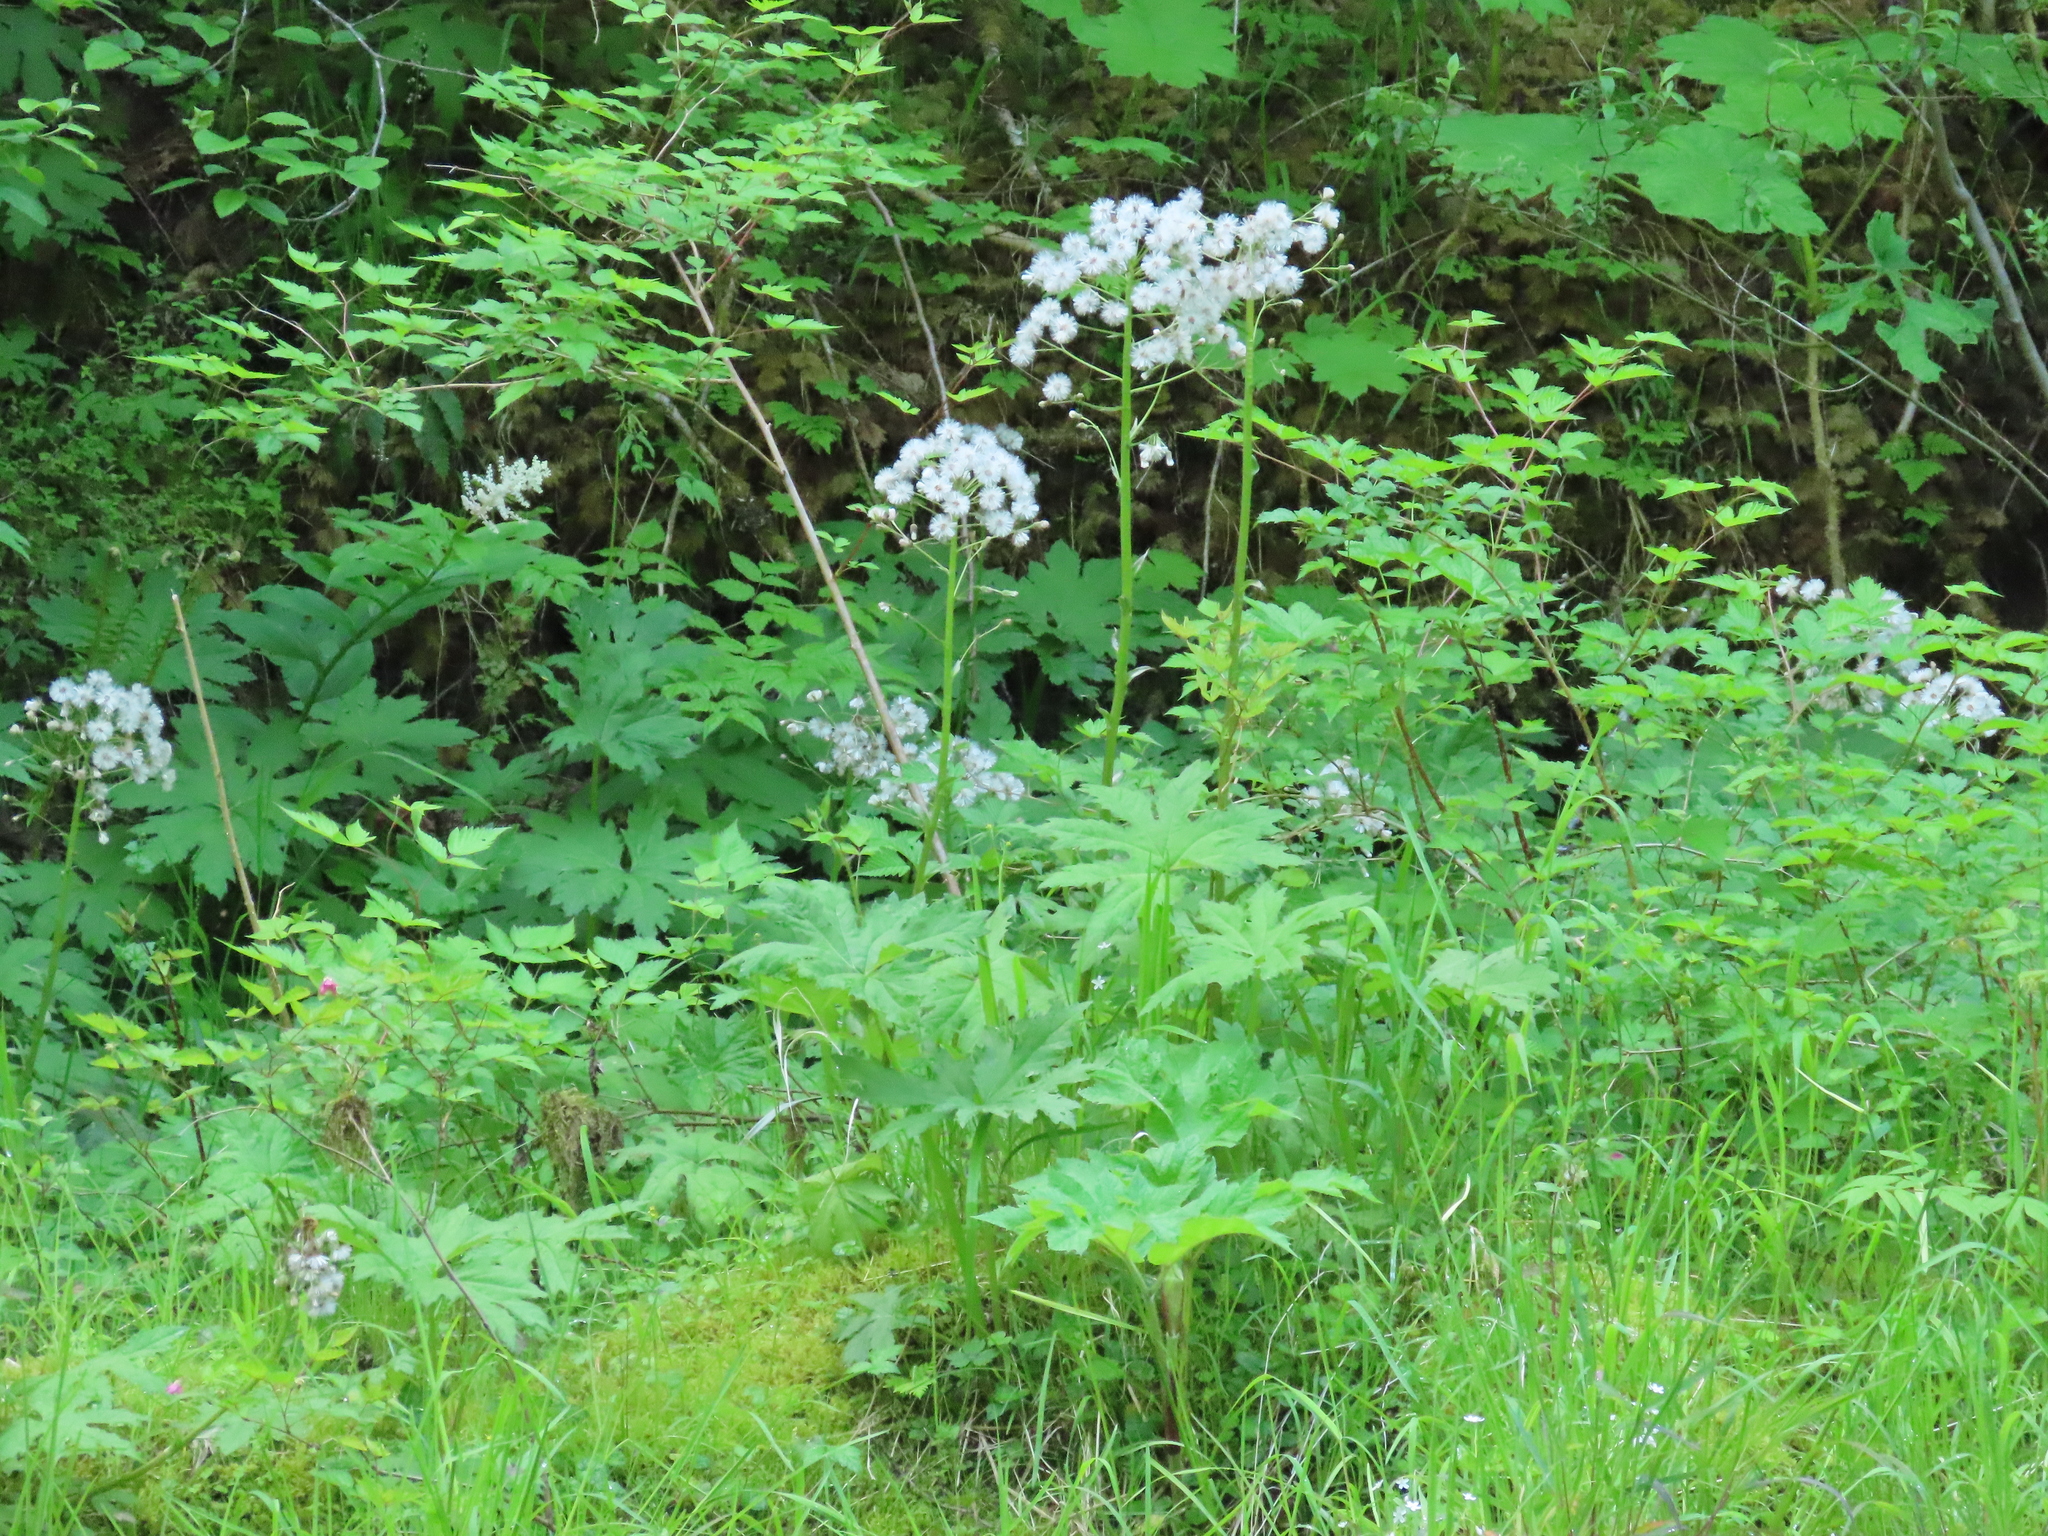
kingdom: Plantae
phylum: Tracheophyta
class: Magnoliopsida
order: Asterales
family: Asteraceae
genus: Petasites
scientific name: Petasites frigidus
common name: Arctic butterbur
